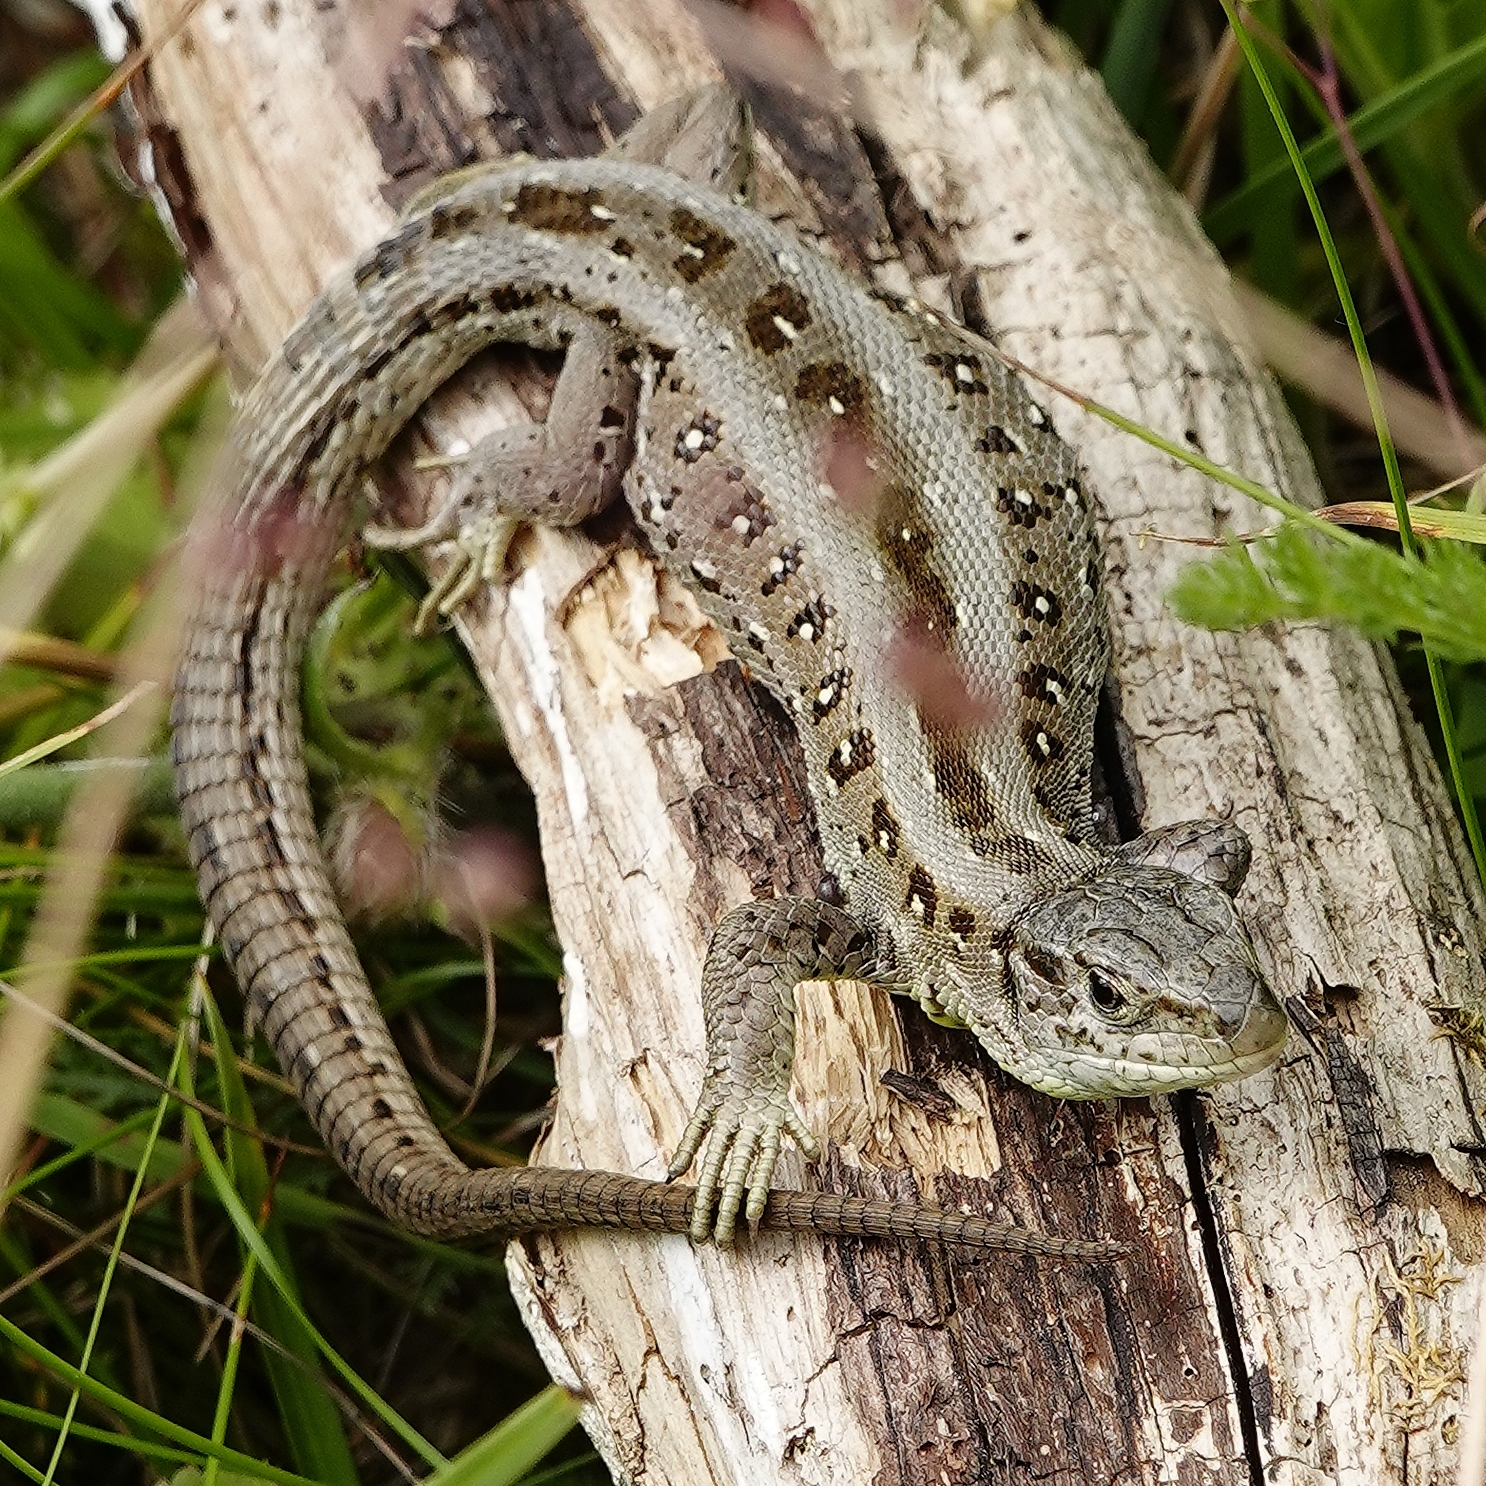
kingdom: Animalia
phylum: Chordata
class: Squamata
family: Lacertidae
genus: Lacerta
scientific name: Lacerta agilis
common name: Sand lizard
